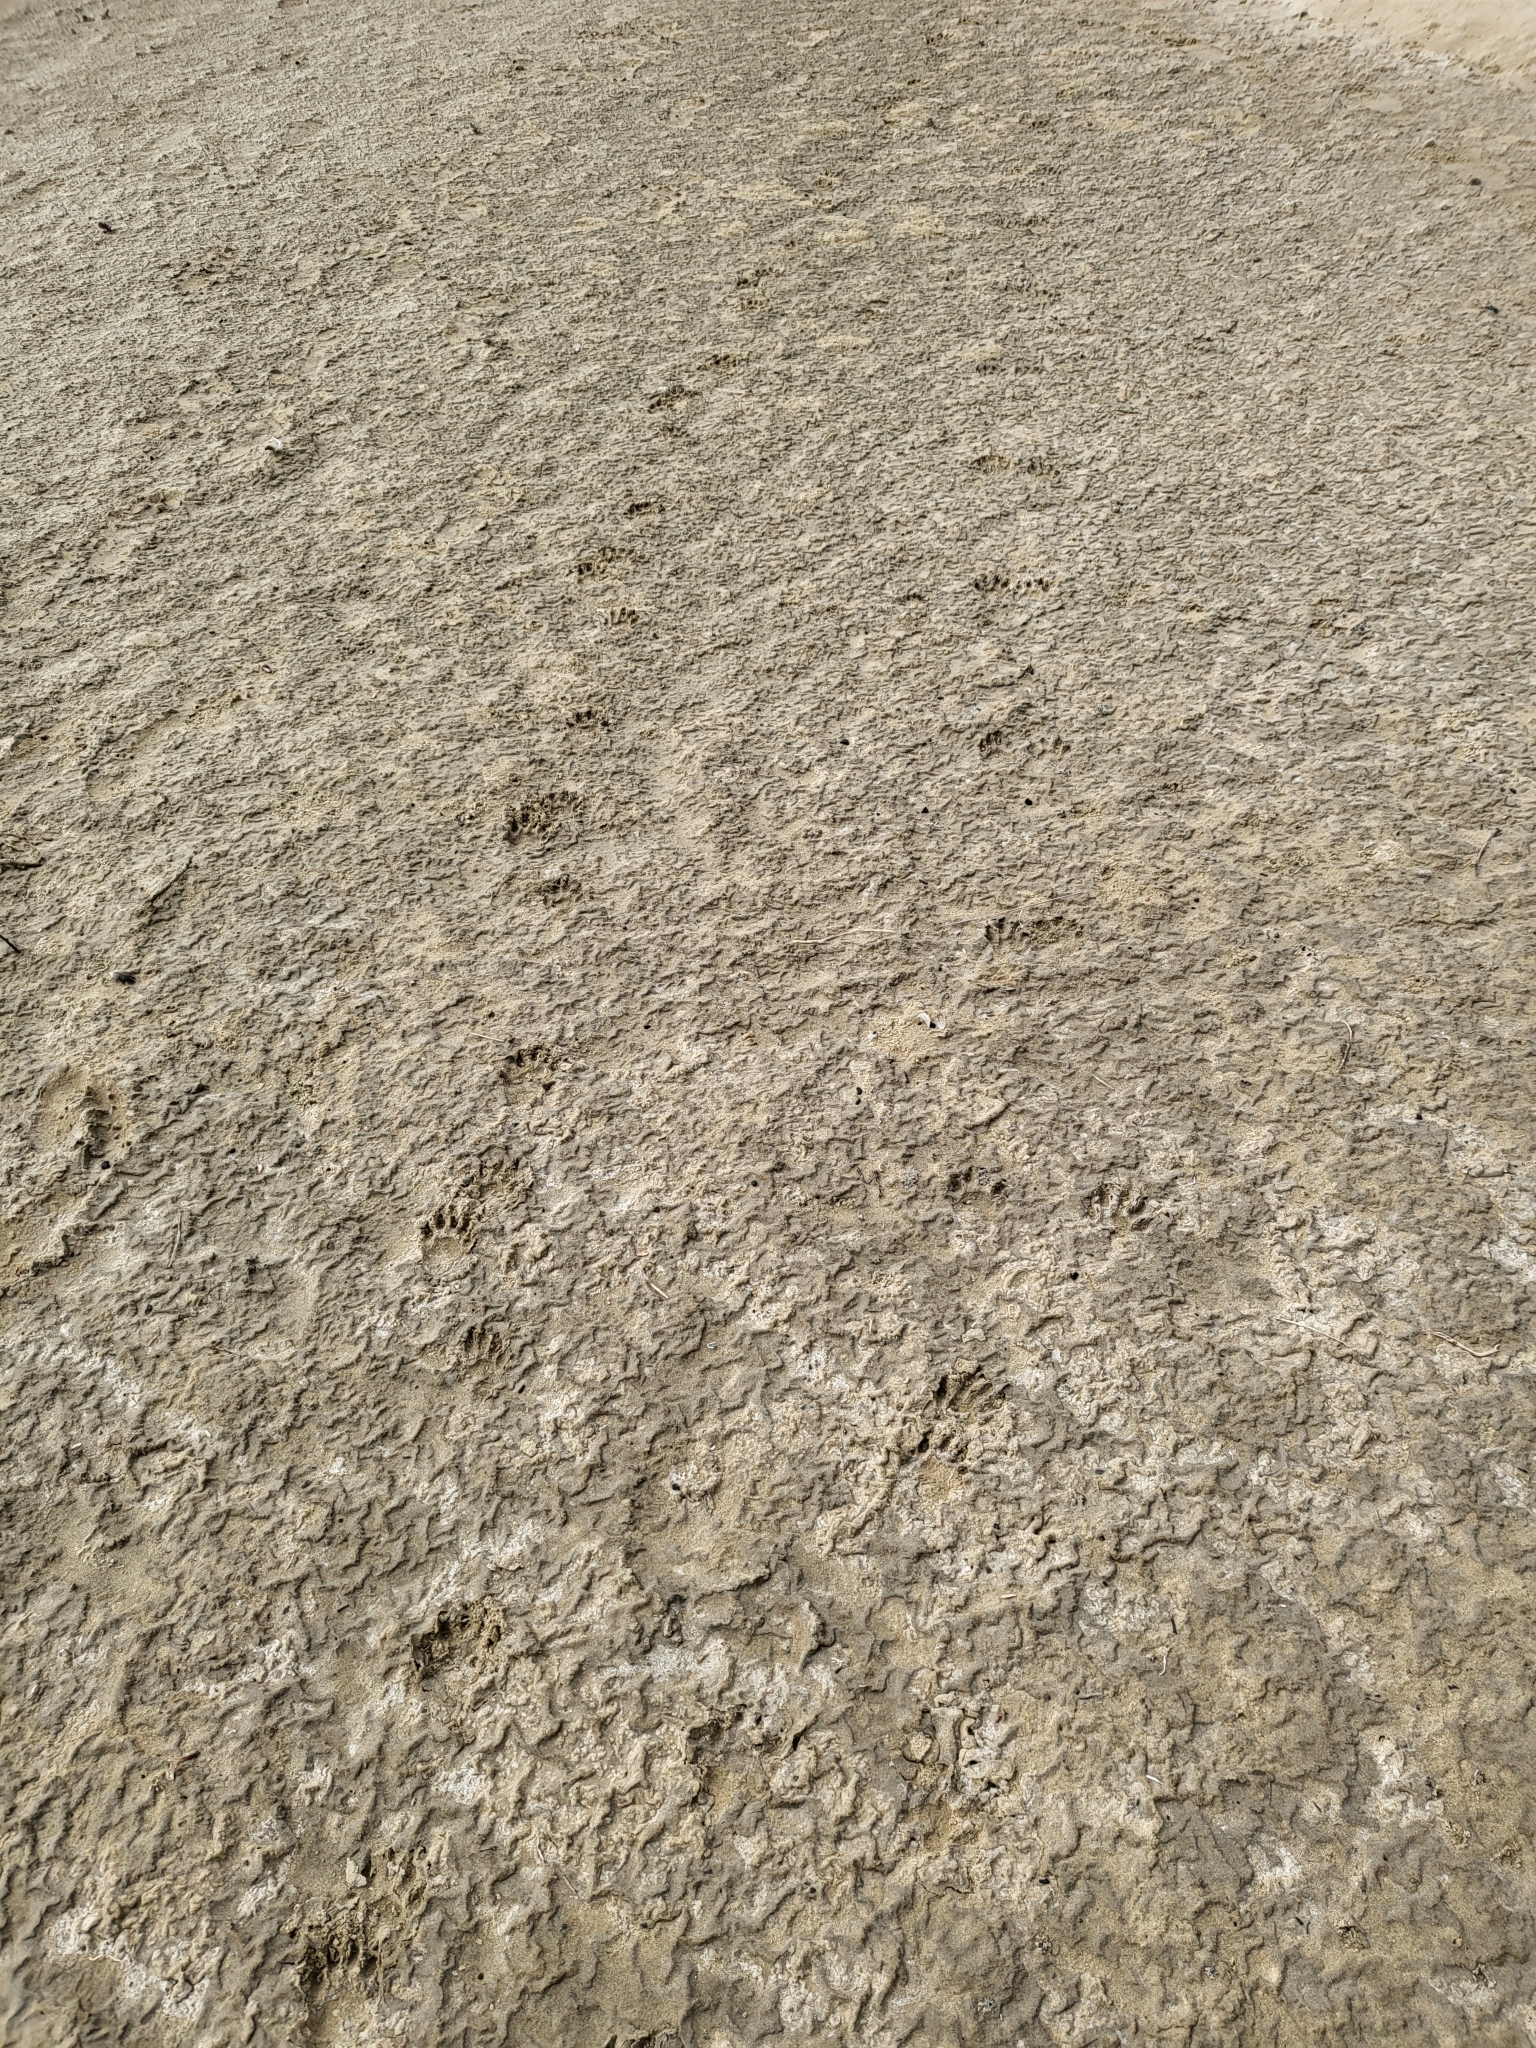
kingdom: Animalia
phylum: Chordata
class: Mammalia
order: Carnivora
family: Procyonidae
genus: Procyon
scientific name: Procyon lotor
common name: Raccoon
